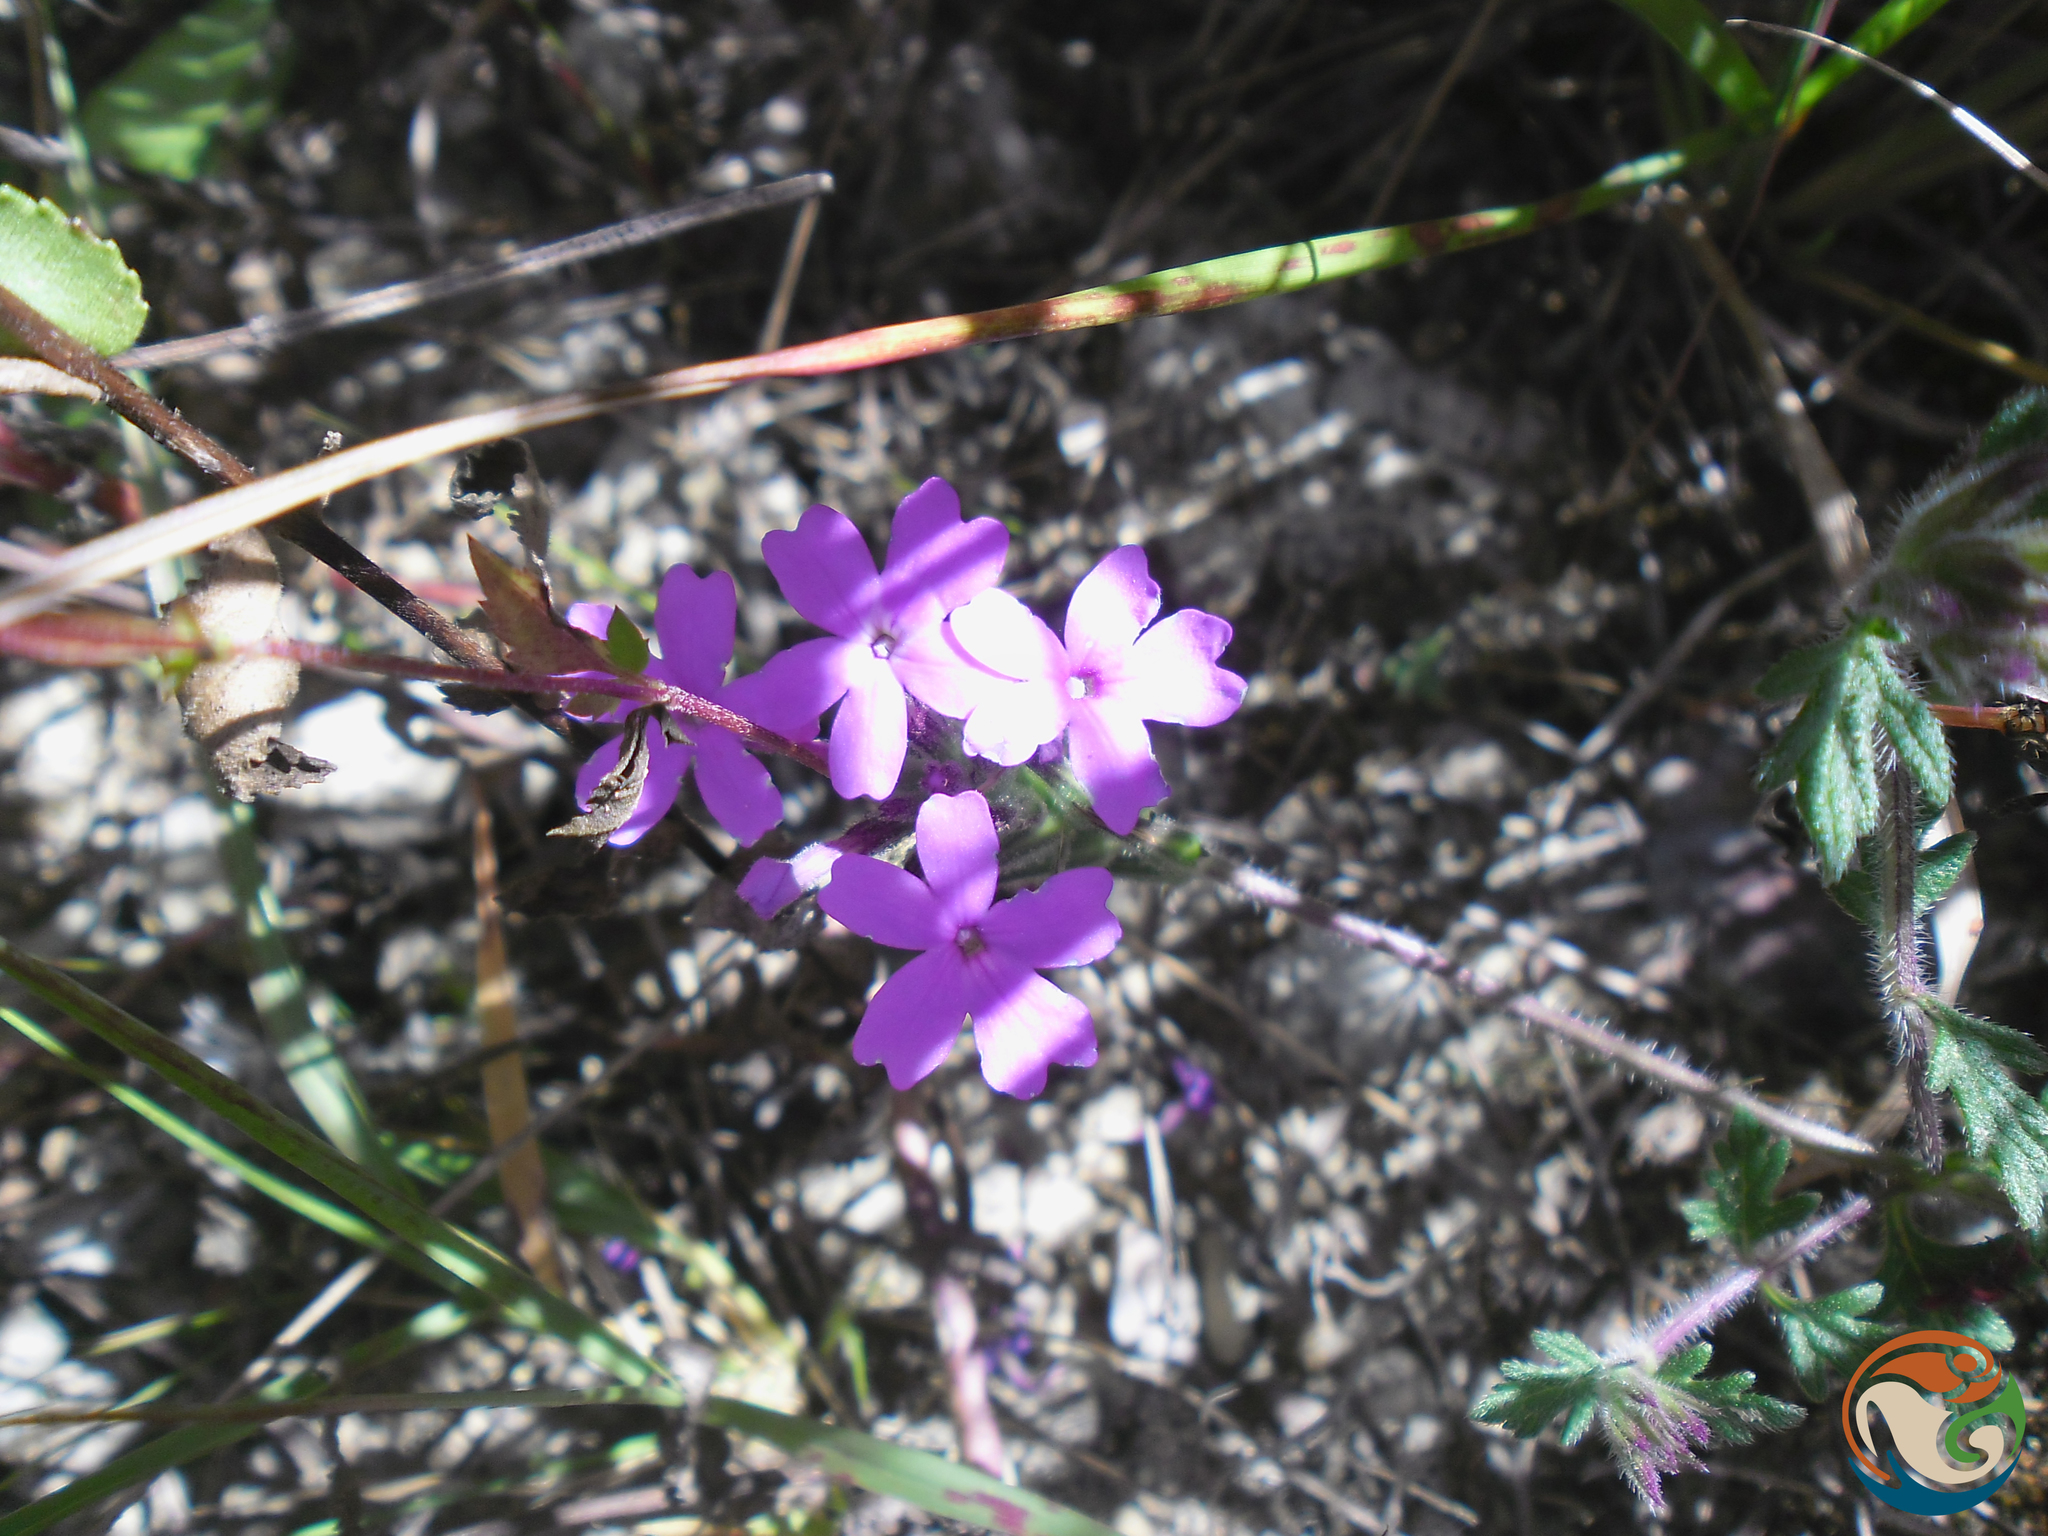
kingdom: Plantae
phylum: Tracheophyta
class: Magnoliopsida
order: Lamiales
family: Verbenaceae
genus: Verbena
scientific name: Verbena bipinnatifida
